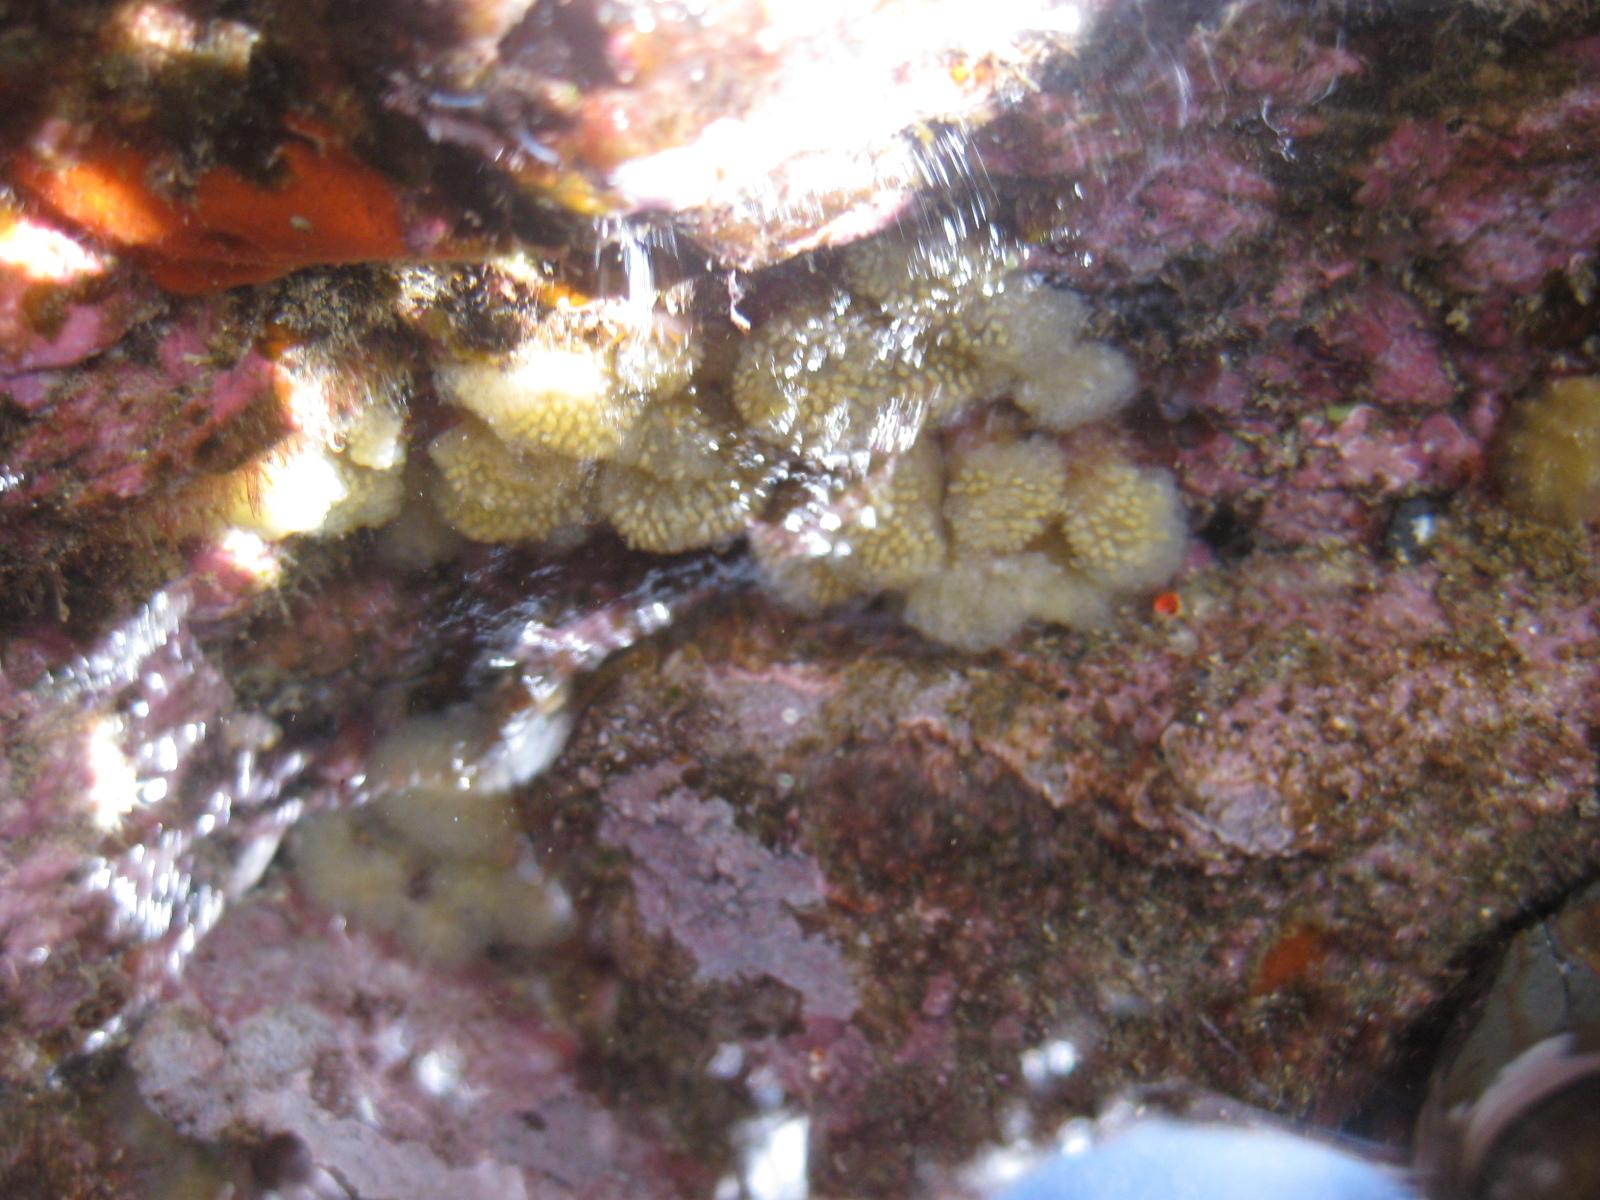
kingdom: Animalia
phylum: Chordata
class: Ascidiacea
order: Aplousobranchia
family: Pseudodistomidae
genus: Pseudodistoma
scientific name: Pseudodistoma opacum
